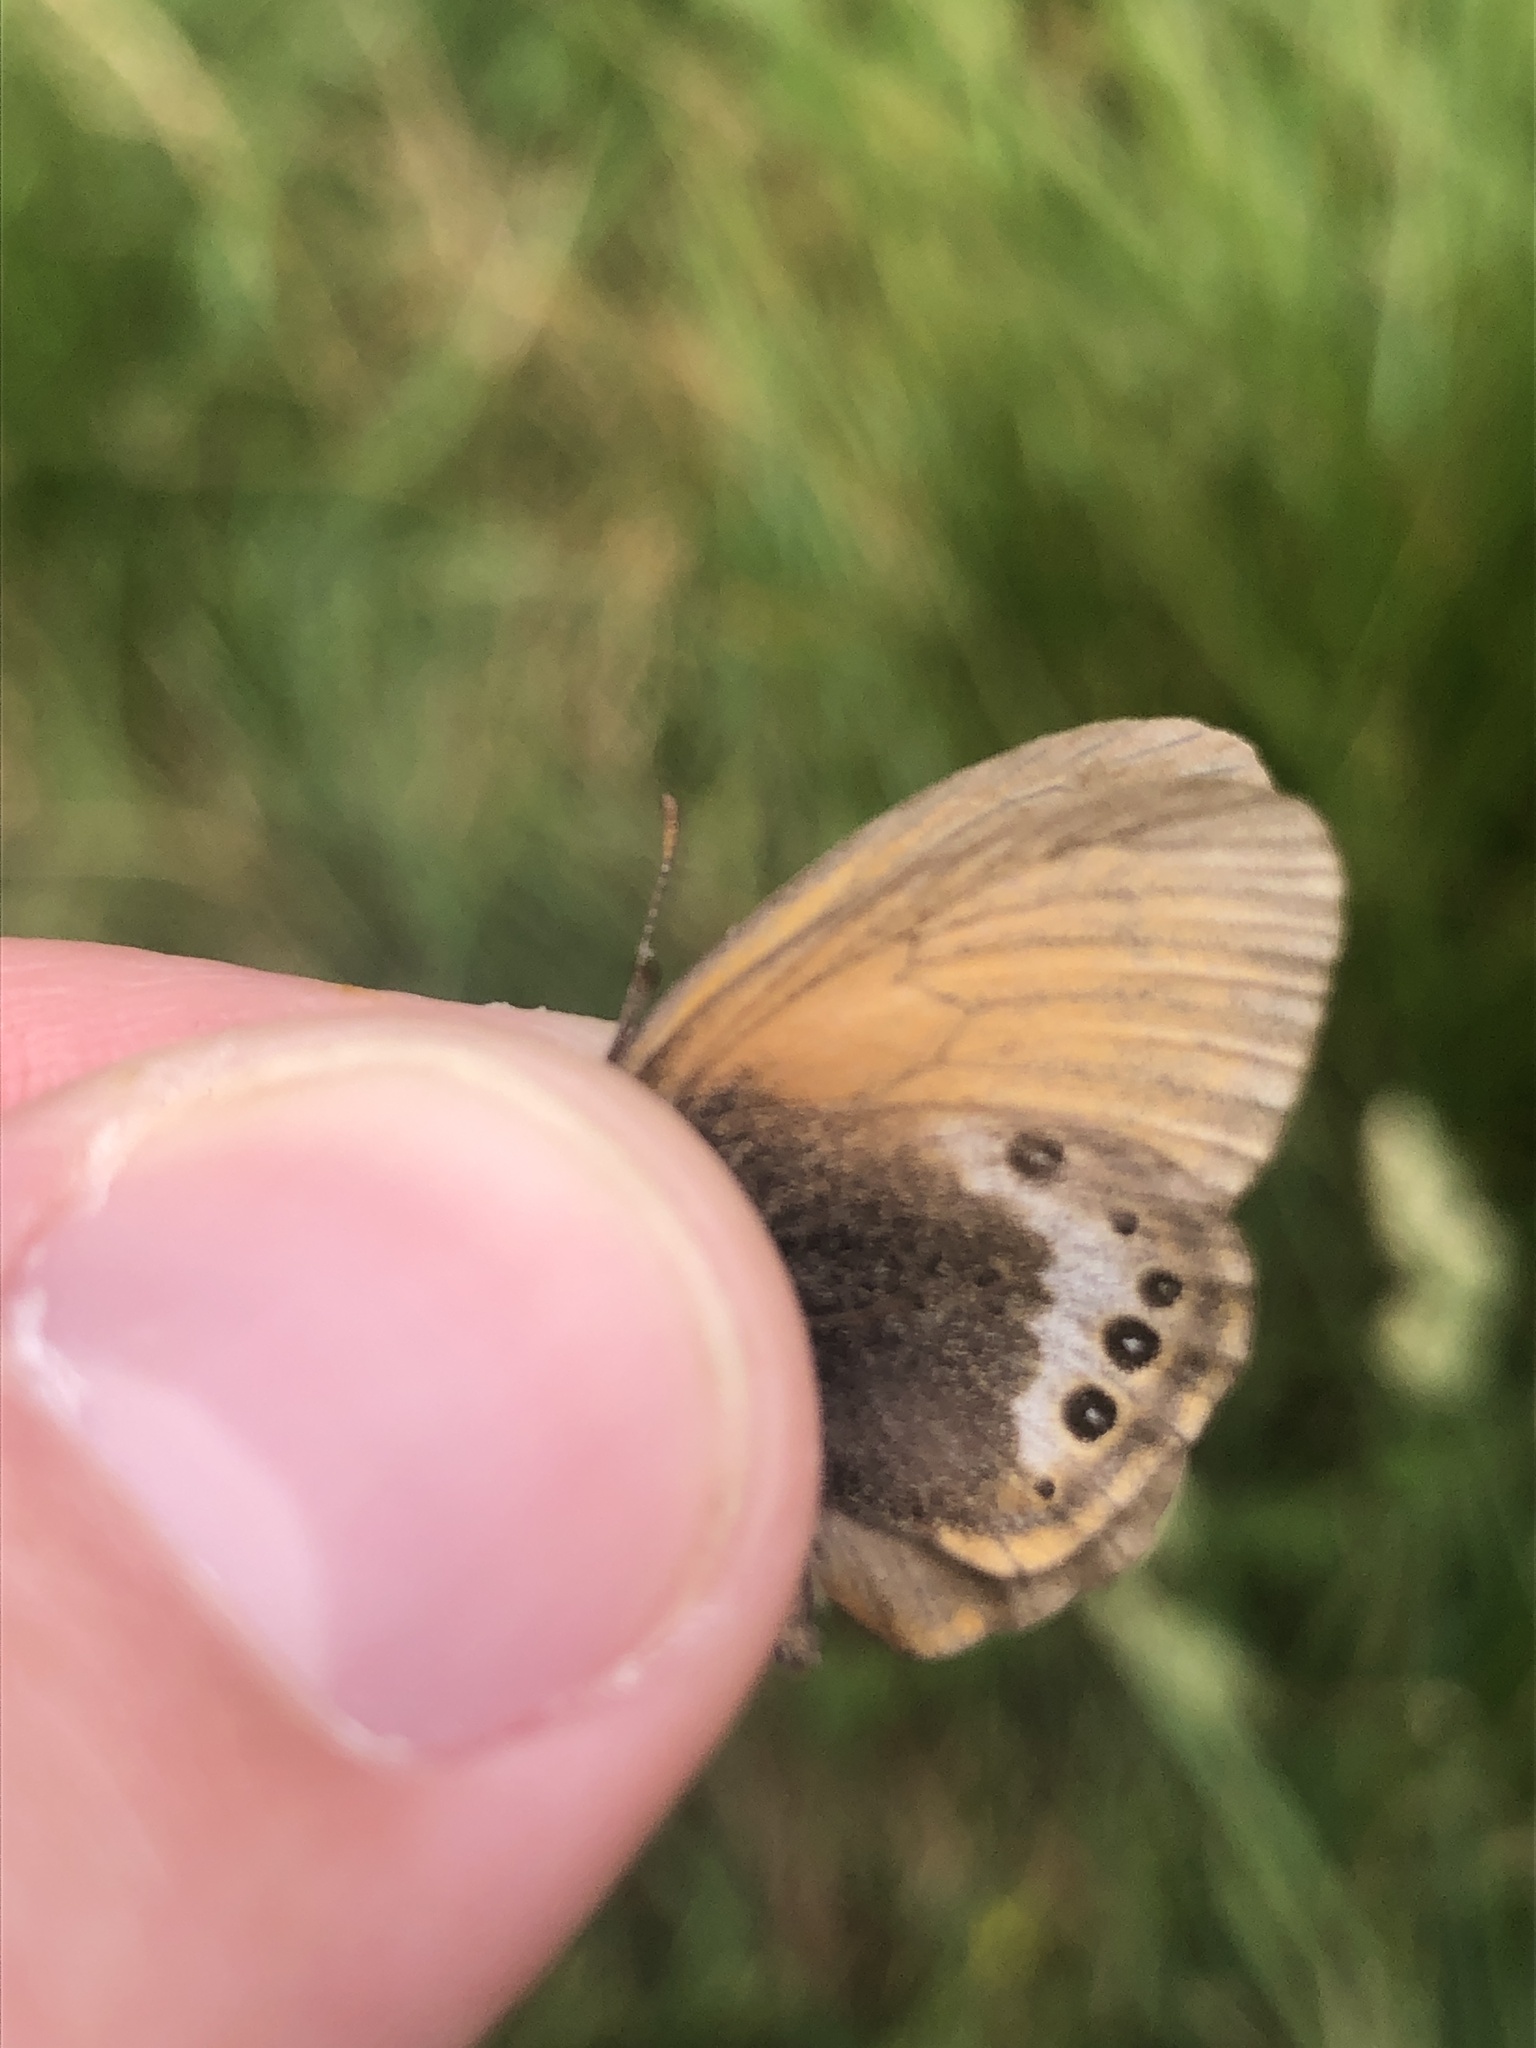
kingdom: Animalia
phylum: Arthropoda
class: Insecta
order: Lepidoptera
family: Nymphalidae
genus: Coenonympha
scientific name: Coenonympha
